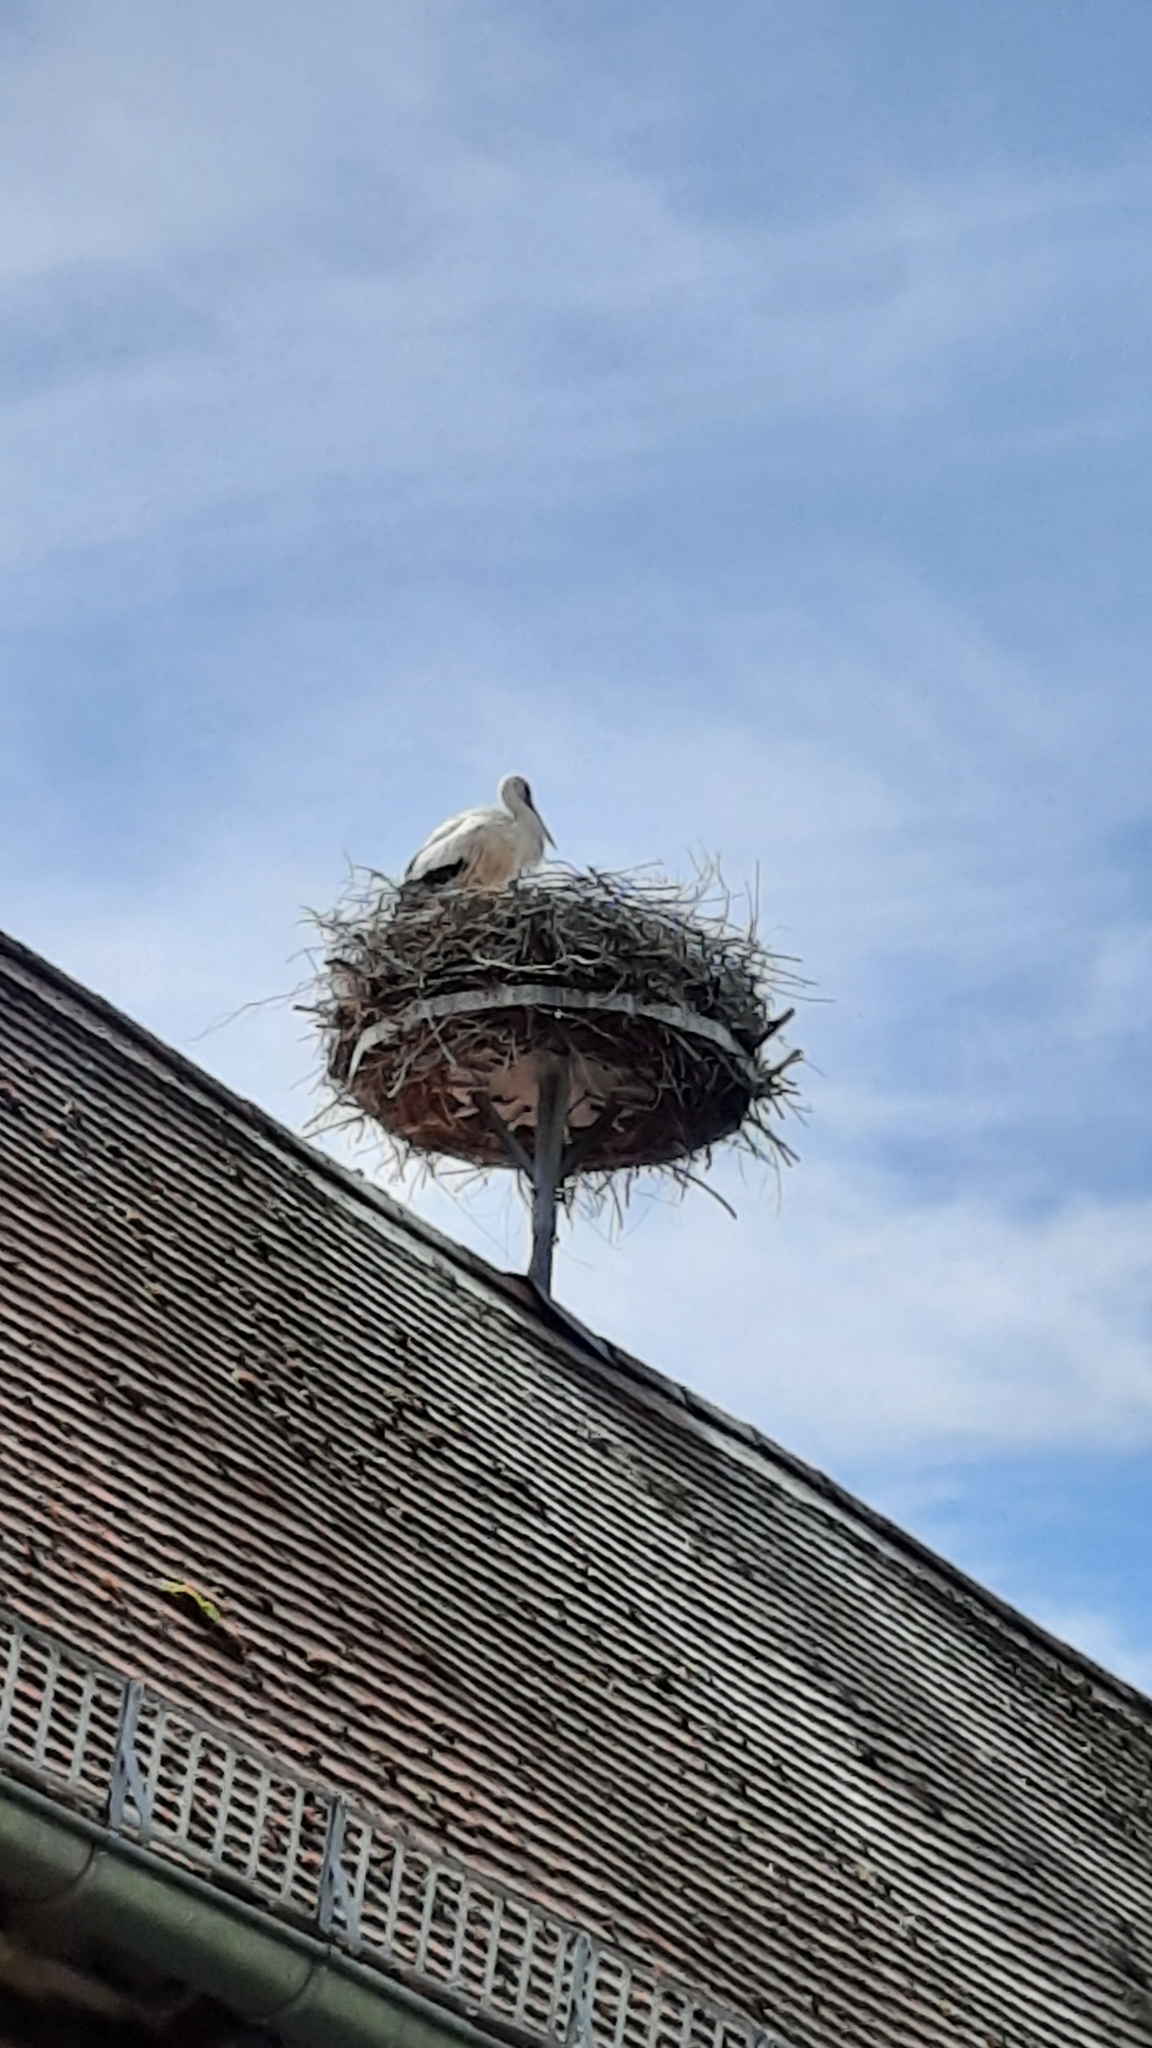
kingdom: Animalia
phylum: Chordata
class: Aves
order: Ciconiiformes
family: Ciconiidae
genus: Ciconia
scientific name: Ciconia ciconia
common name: White stork
